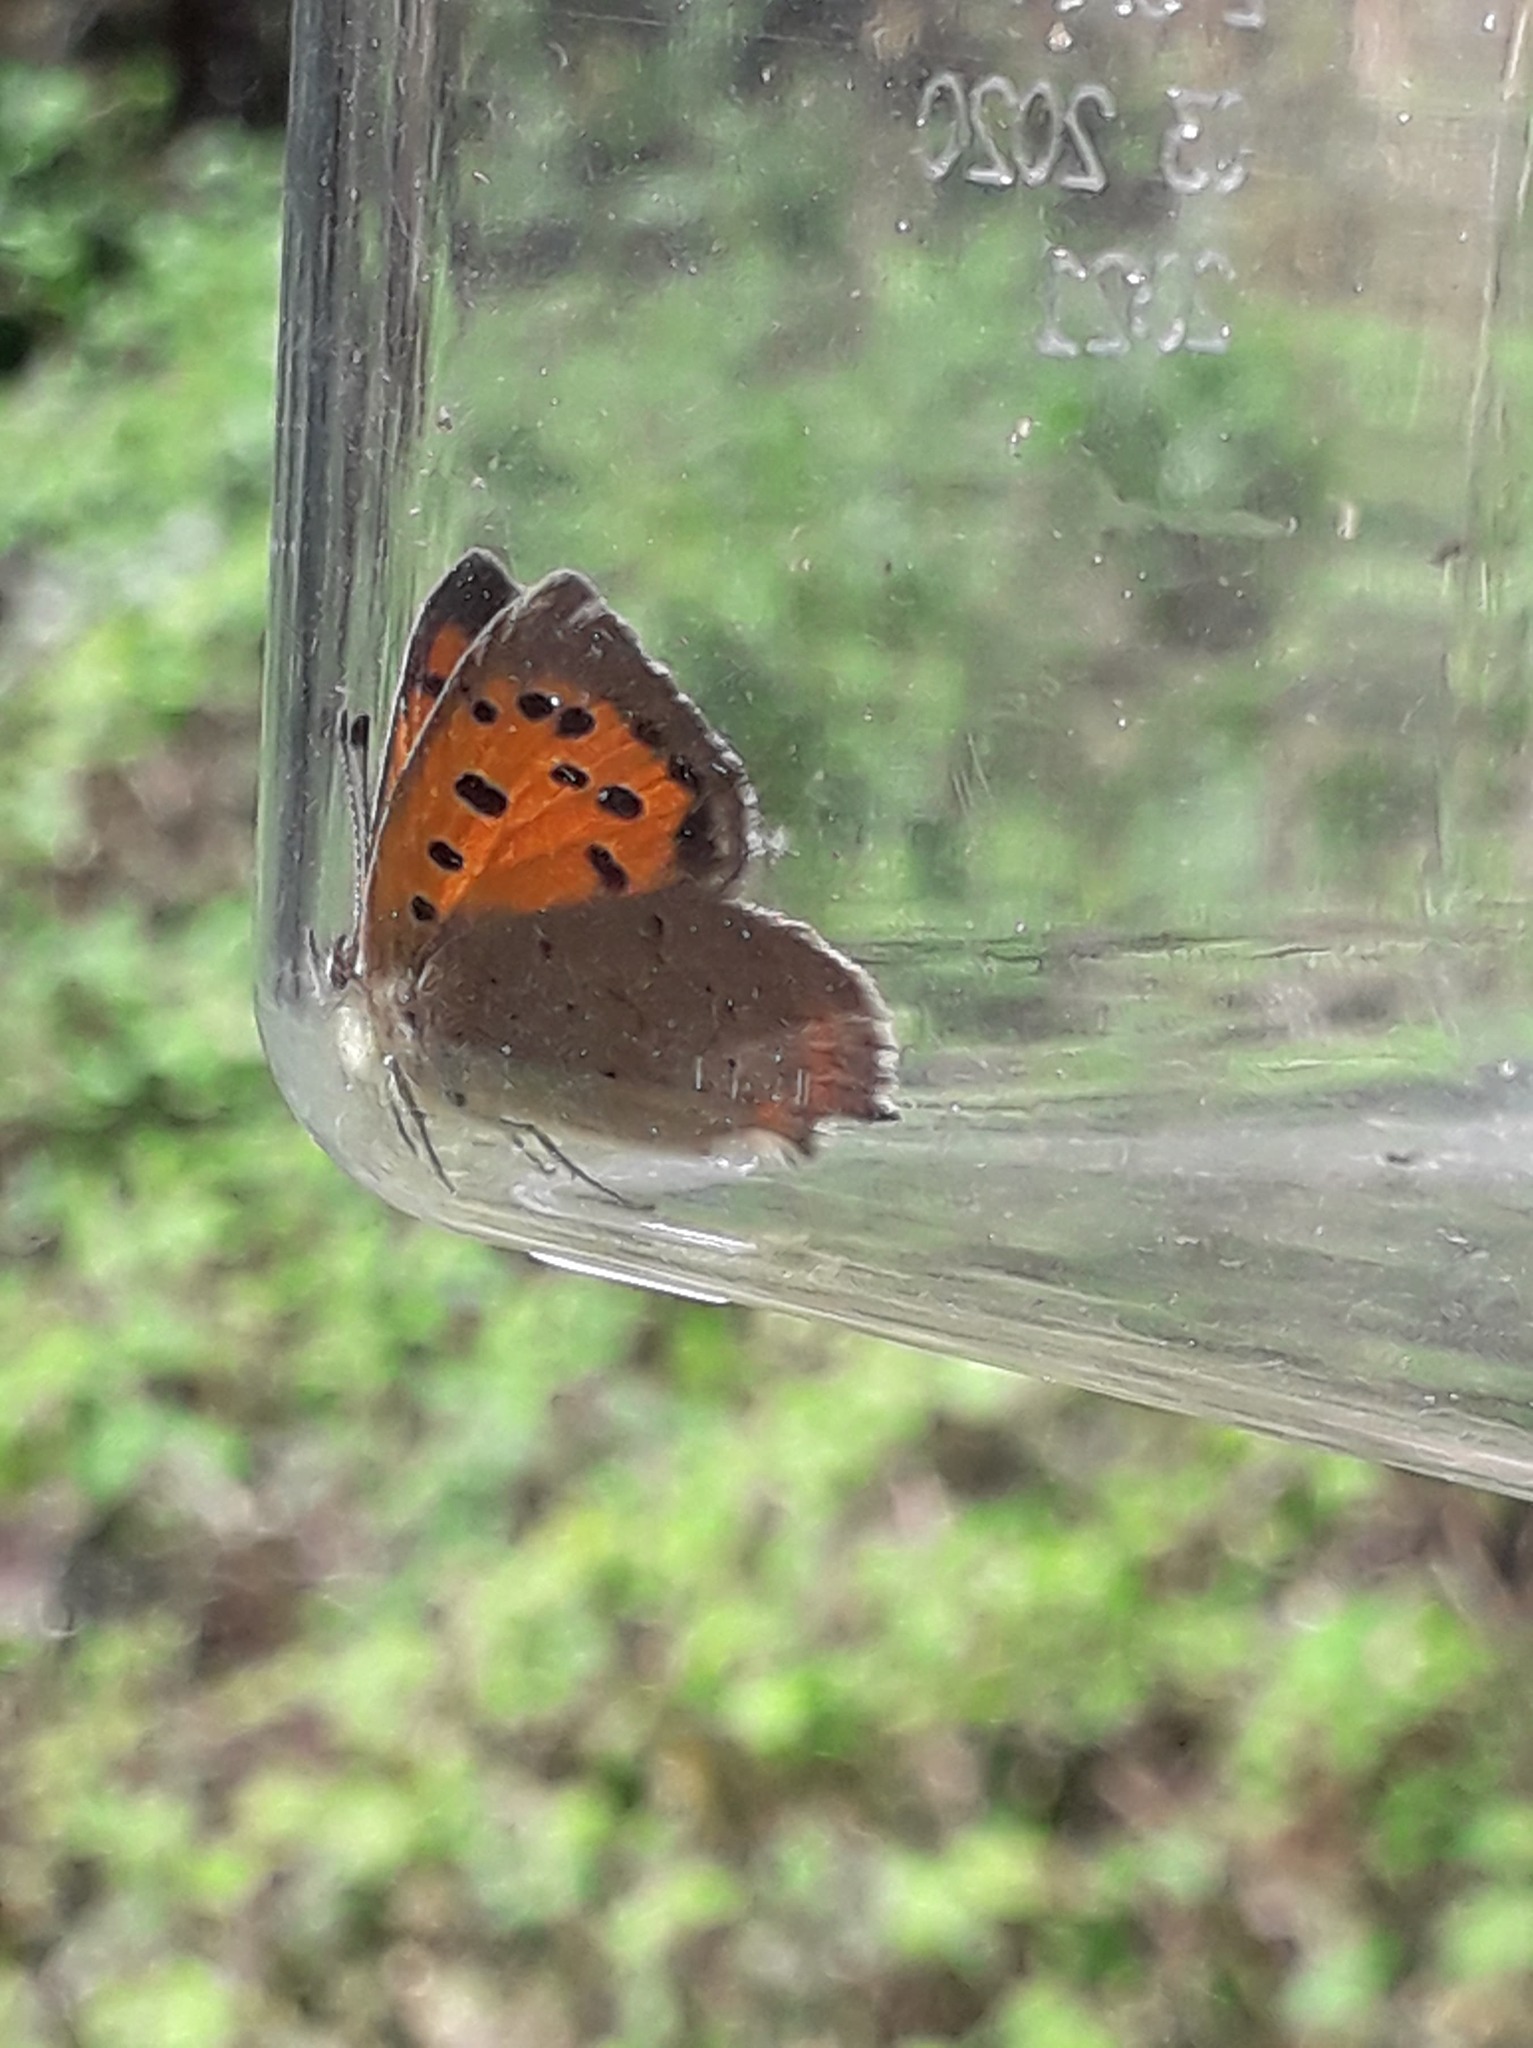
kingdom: Animalia
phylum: Arthropoda
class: Insecta
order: Lepidoptera
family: Lycaenidae
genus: Lycaena
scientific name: Lycaena phlaeas
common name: Small copper
